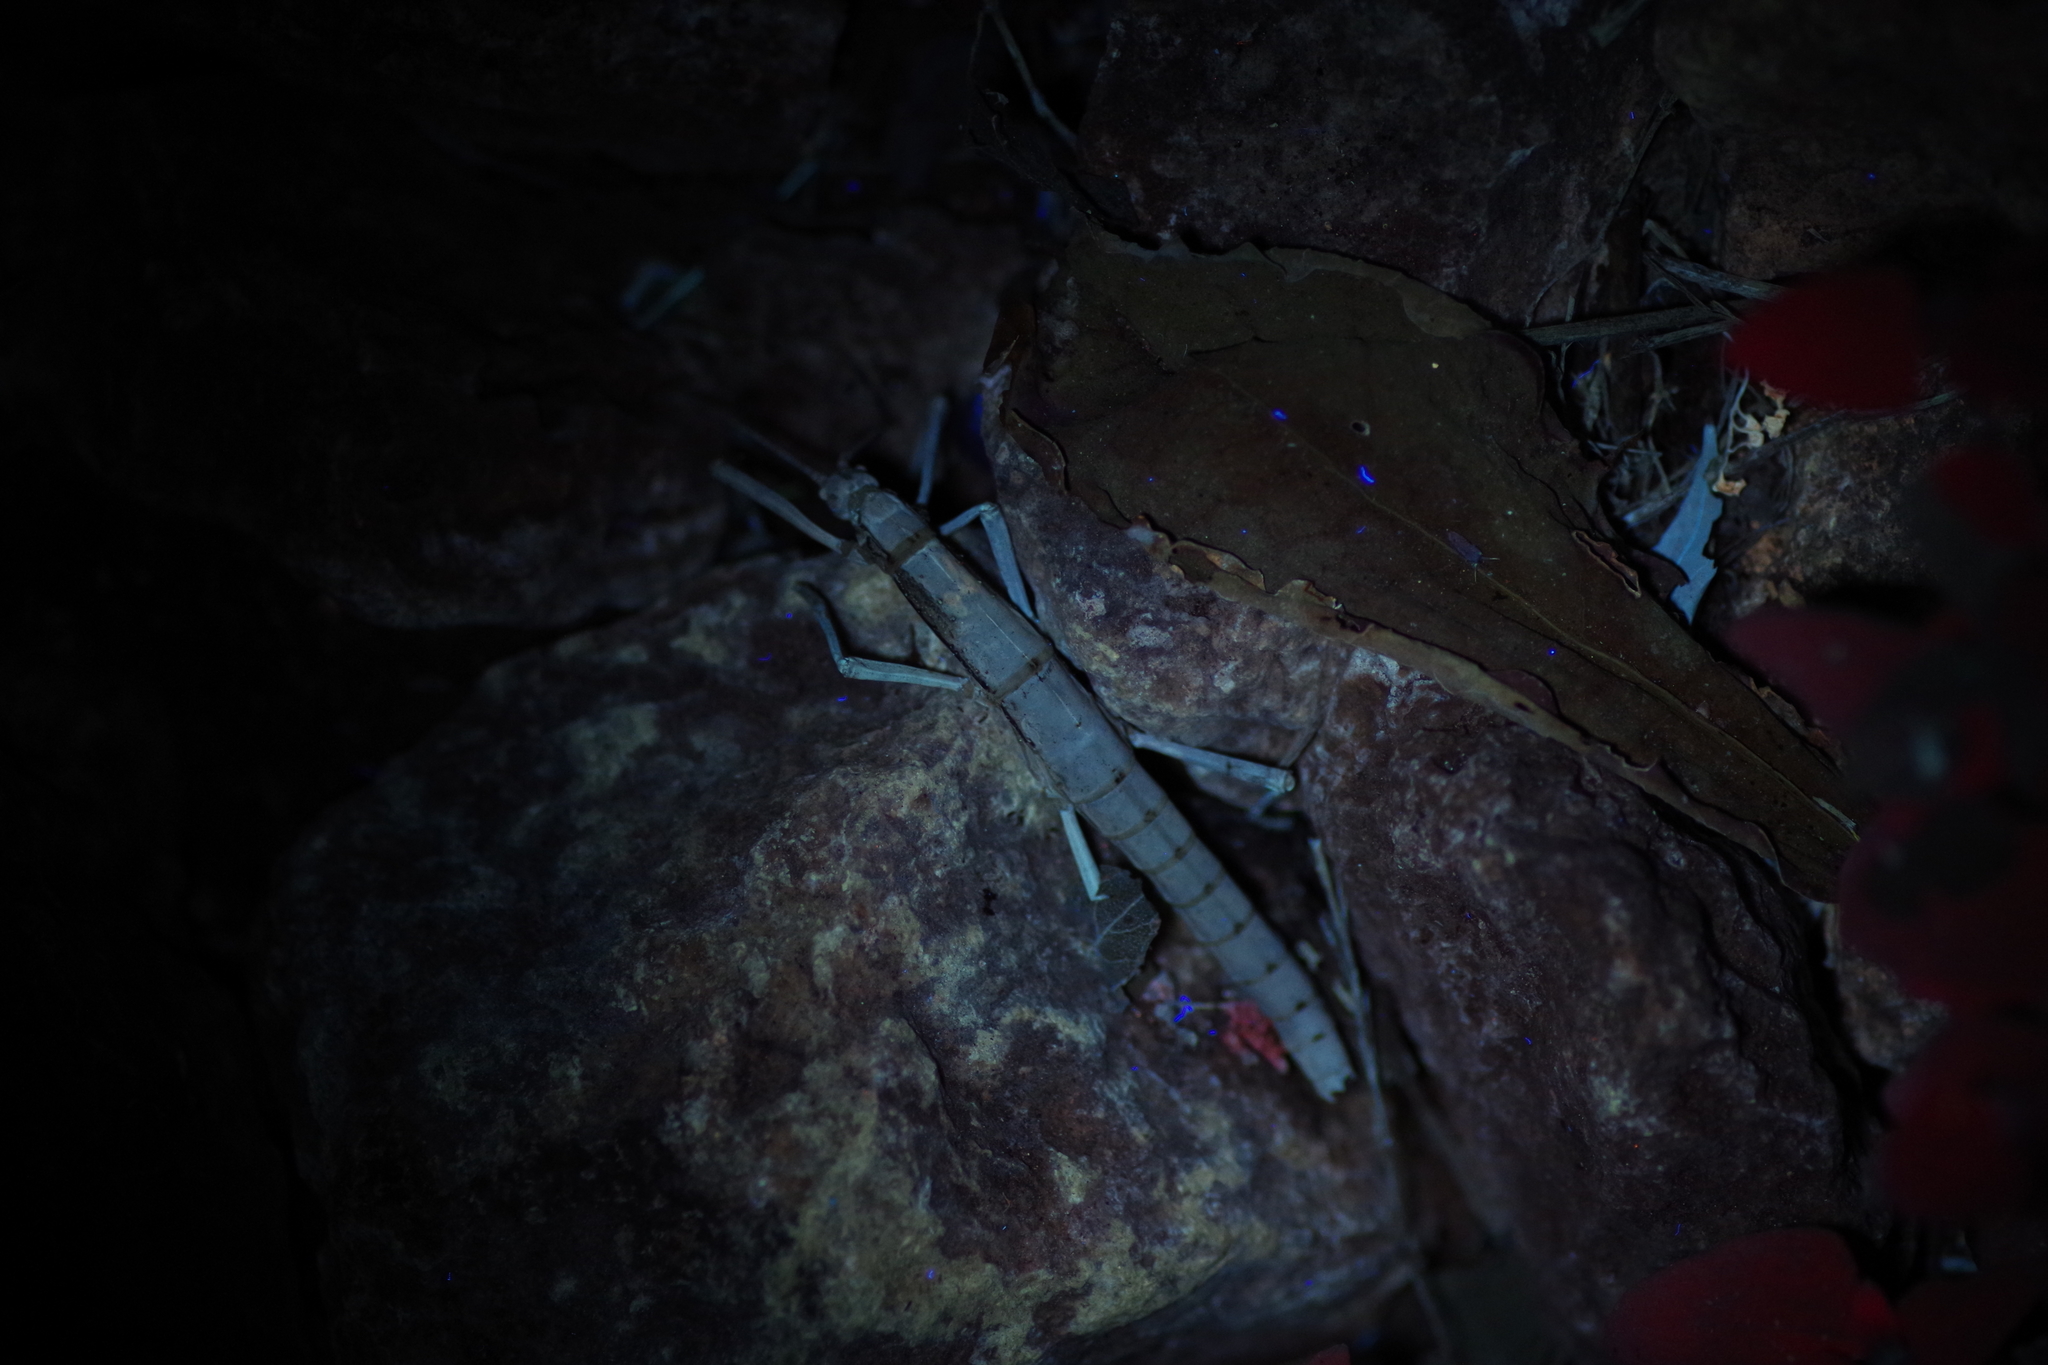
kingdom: Animalia
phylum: Arthropoda
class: Insecta
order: Phasmida
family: Pseudophasmatidae
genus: Anisomorpha
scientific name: Anisomorpha buprestoides
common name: Florida stick insect
